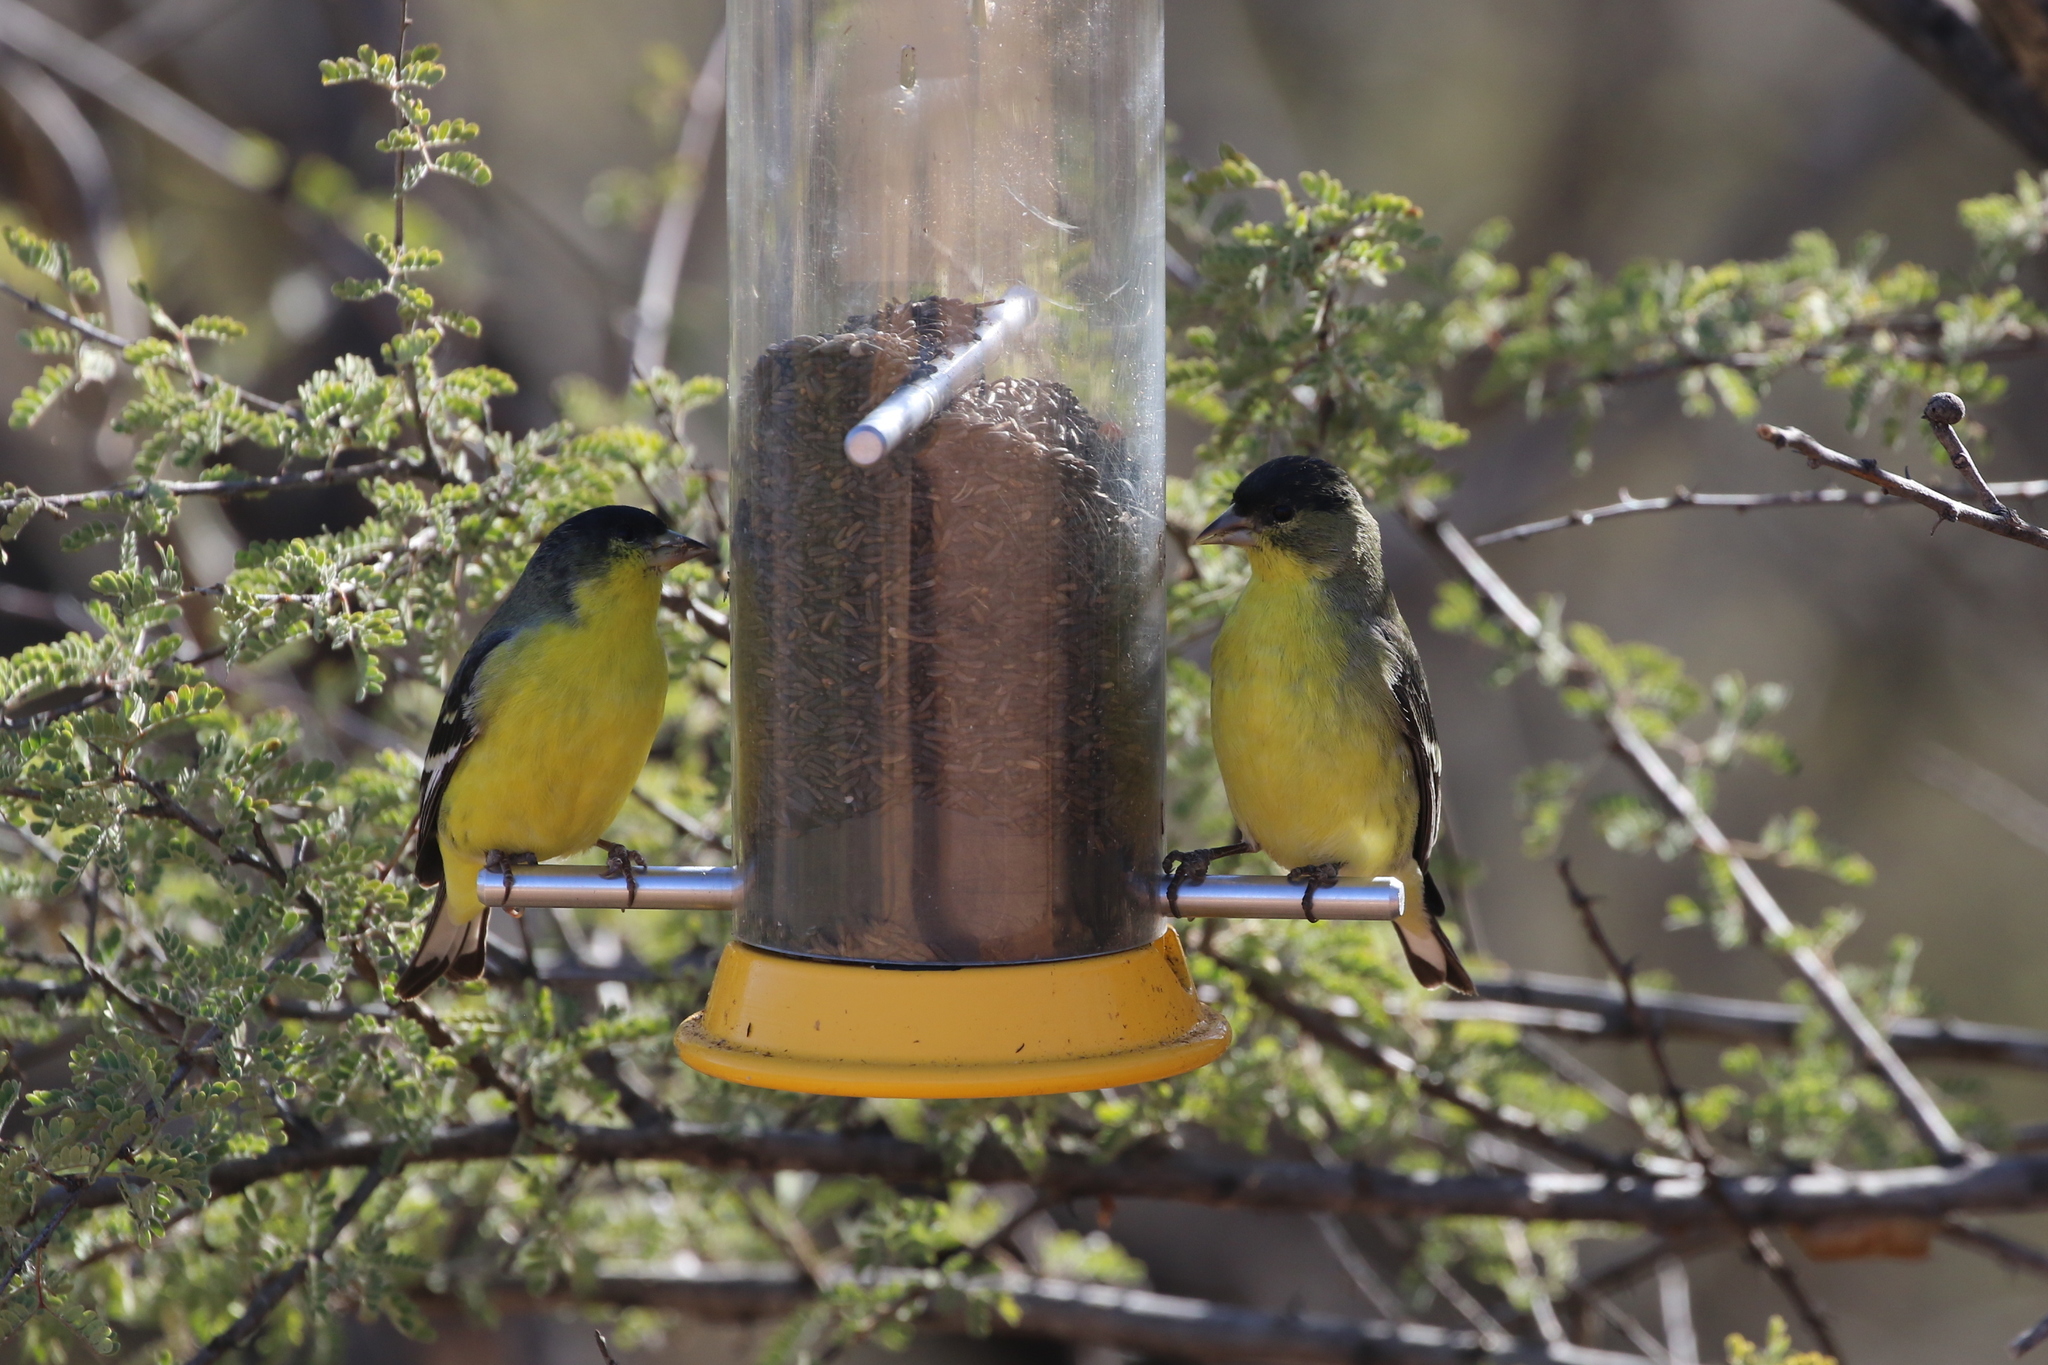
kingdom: Animalia
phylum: Chordata
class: Aves
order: Passeriformes
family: Fringillidae
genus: Spinus
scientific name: Spinus psaltria
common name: Lesser goldfinch
